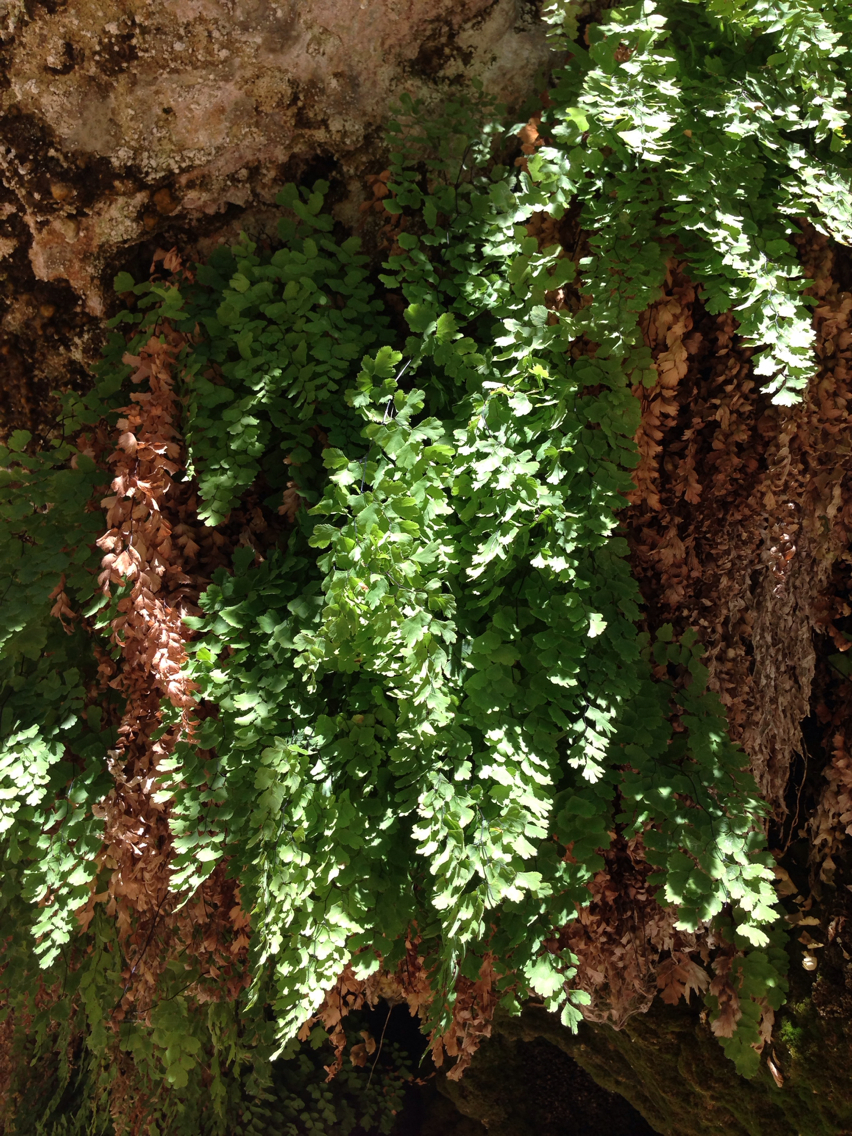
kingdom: Plantae
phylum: Tracheophyta
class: Polypodiopsida
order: Polypodiales
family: Pteridaceae
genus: Adiantum
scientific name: Adiantum capillus-veneris
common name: Maidenhair fern
